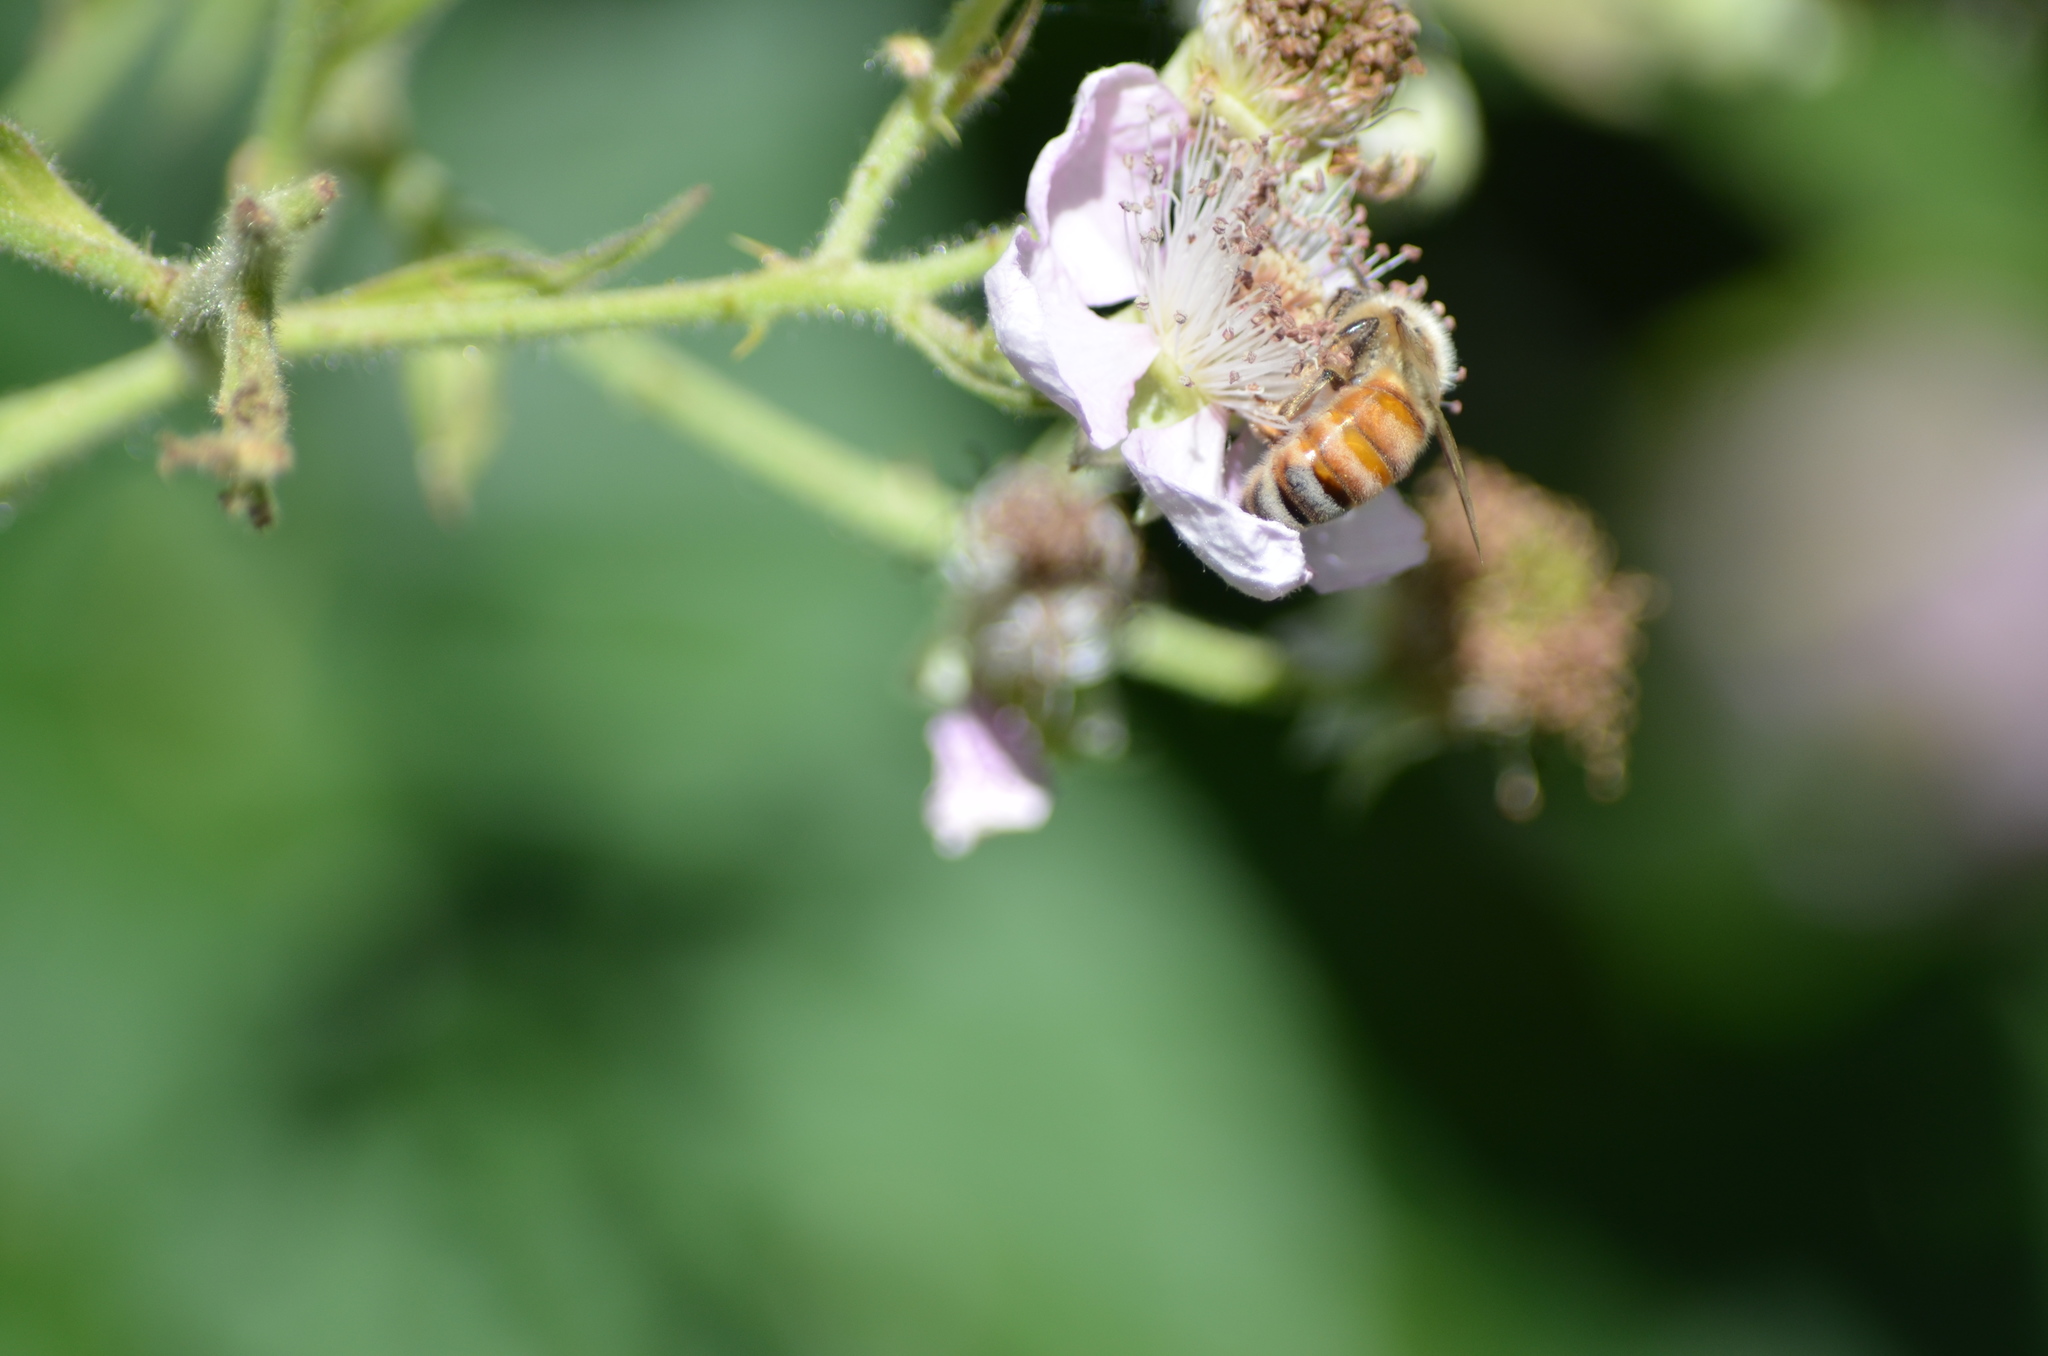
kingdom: Animalia
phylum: Arthropoda
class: Insecta
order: Hymenoptera
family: Apidae
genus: Apis
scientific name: Apis mellifera
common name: Honey bee
